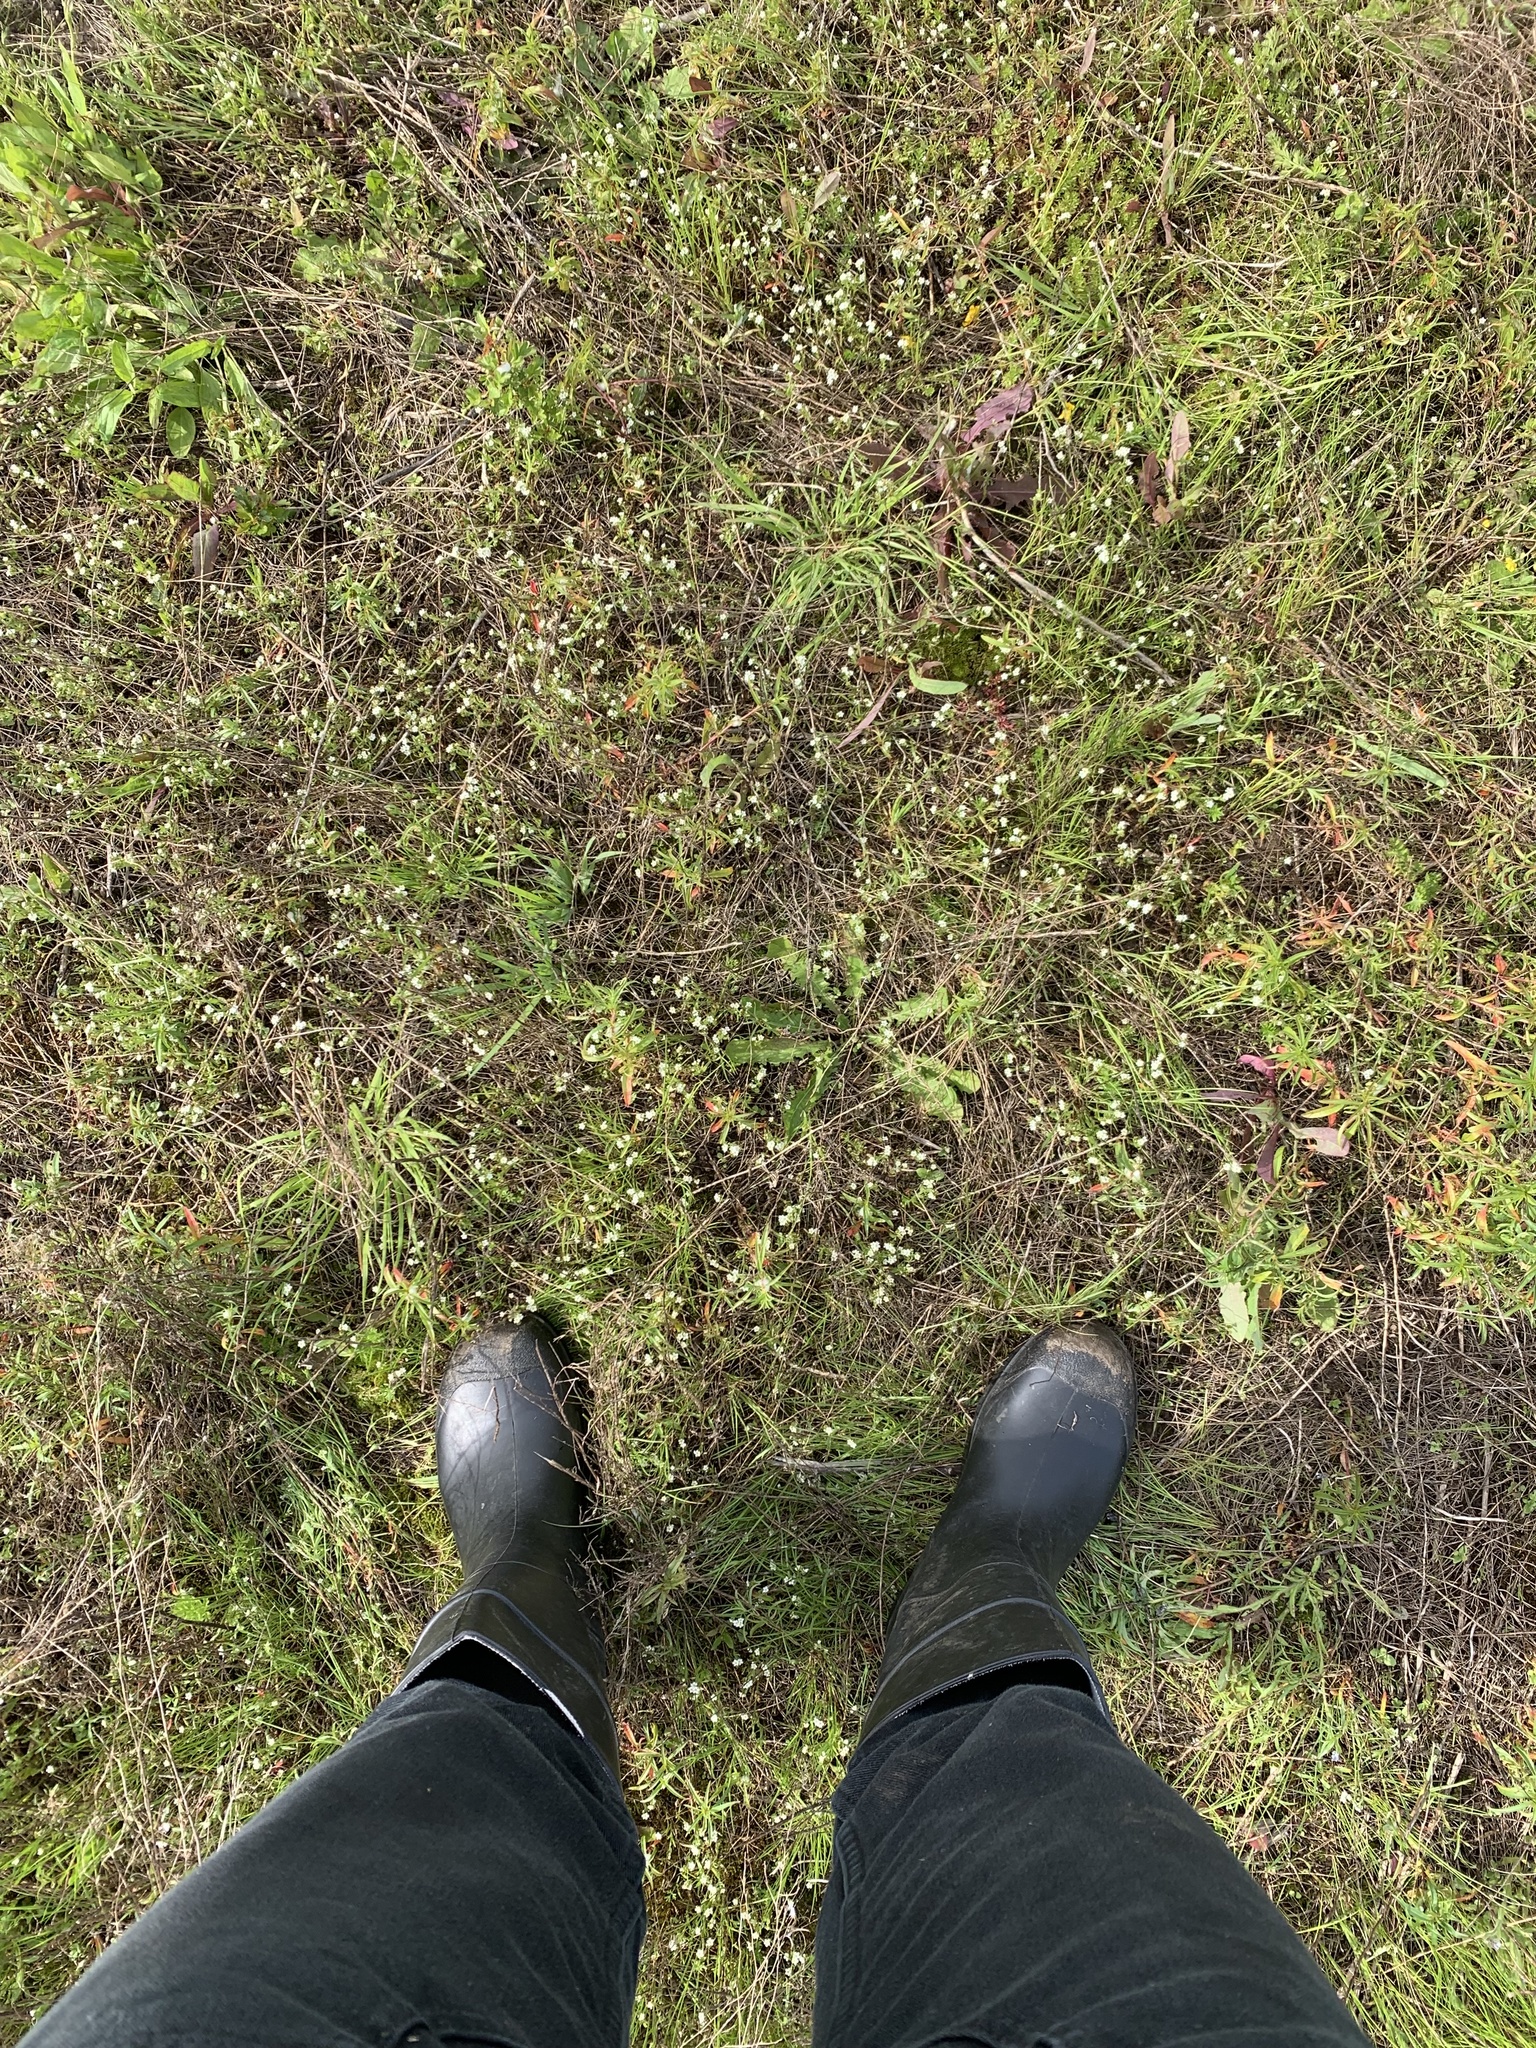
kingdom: Plantae
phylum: Tracheophyta
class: Magnoliopsida
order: Boraginales
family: Boraginaceae
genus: Plagiobothrys
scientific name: Plagiobothrys scouleri
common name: White forget-me-not
